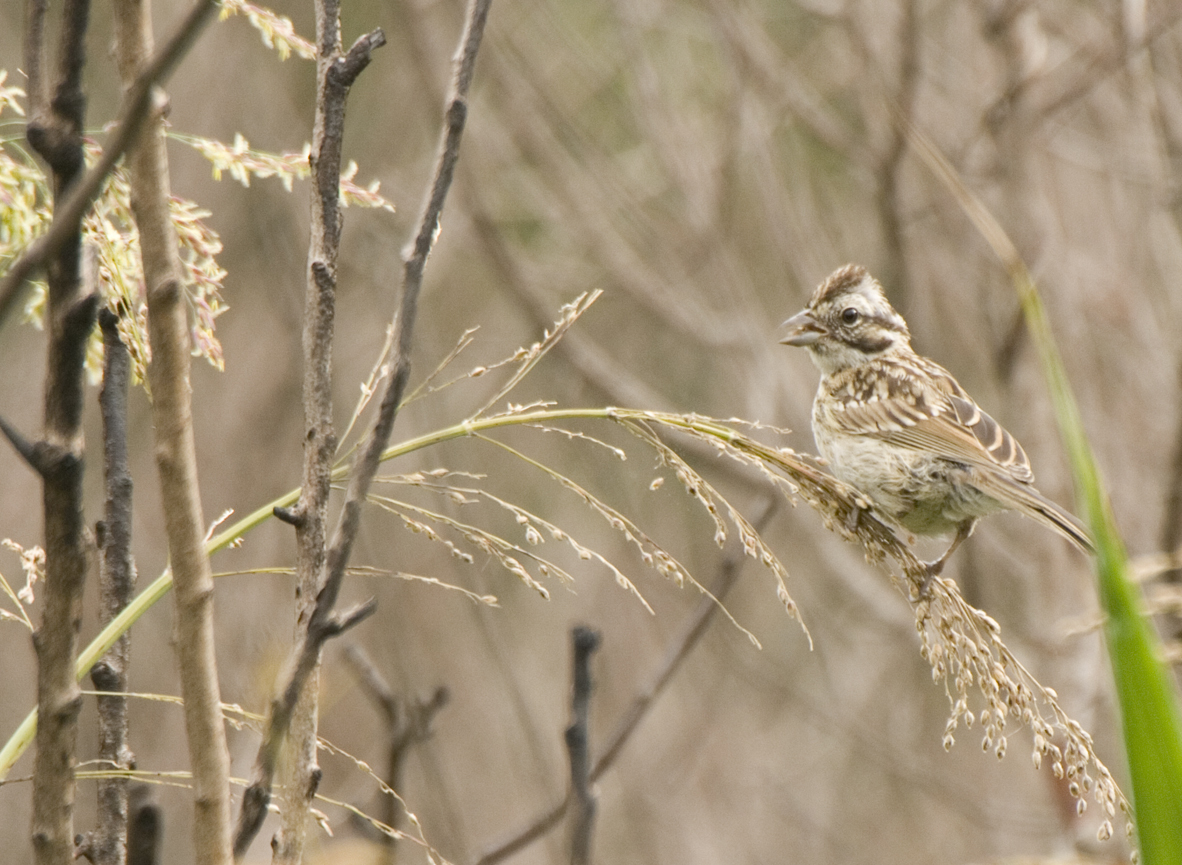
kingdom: Animalia
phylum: Chordata
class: Aves
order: Passeriformes
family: Passerellidae
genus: Zonotrichia
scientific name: Zonotrichia capensis
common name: Rufous-collared sparrow
